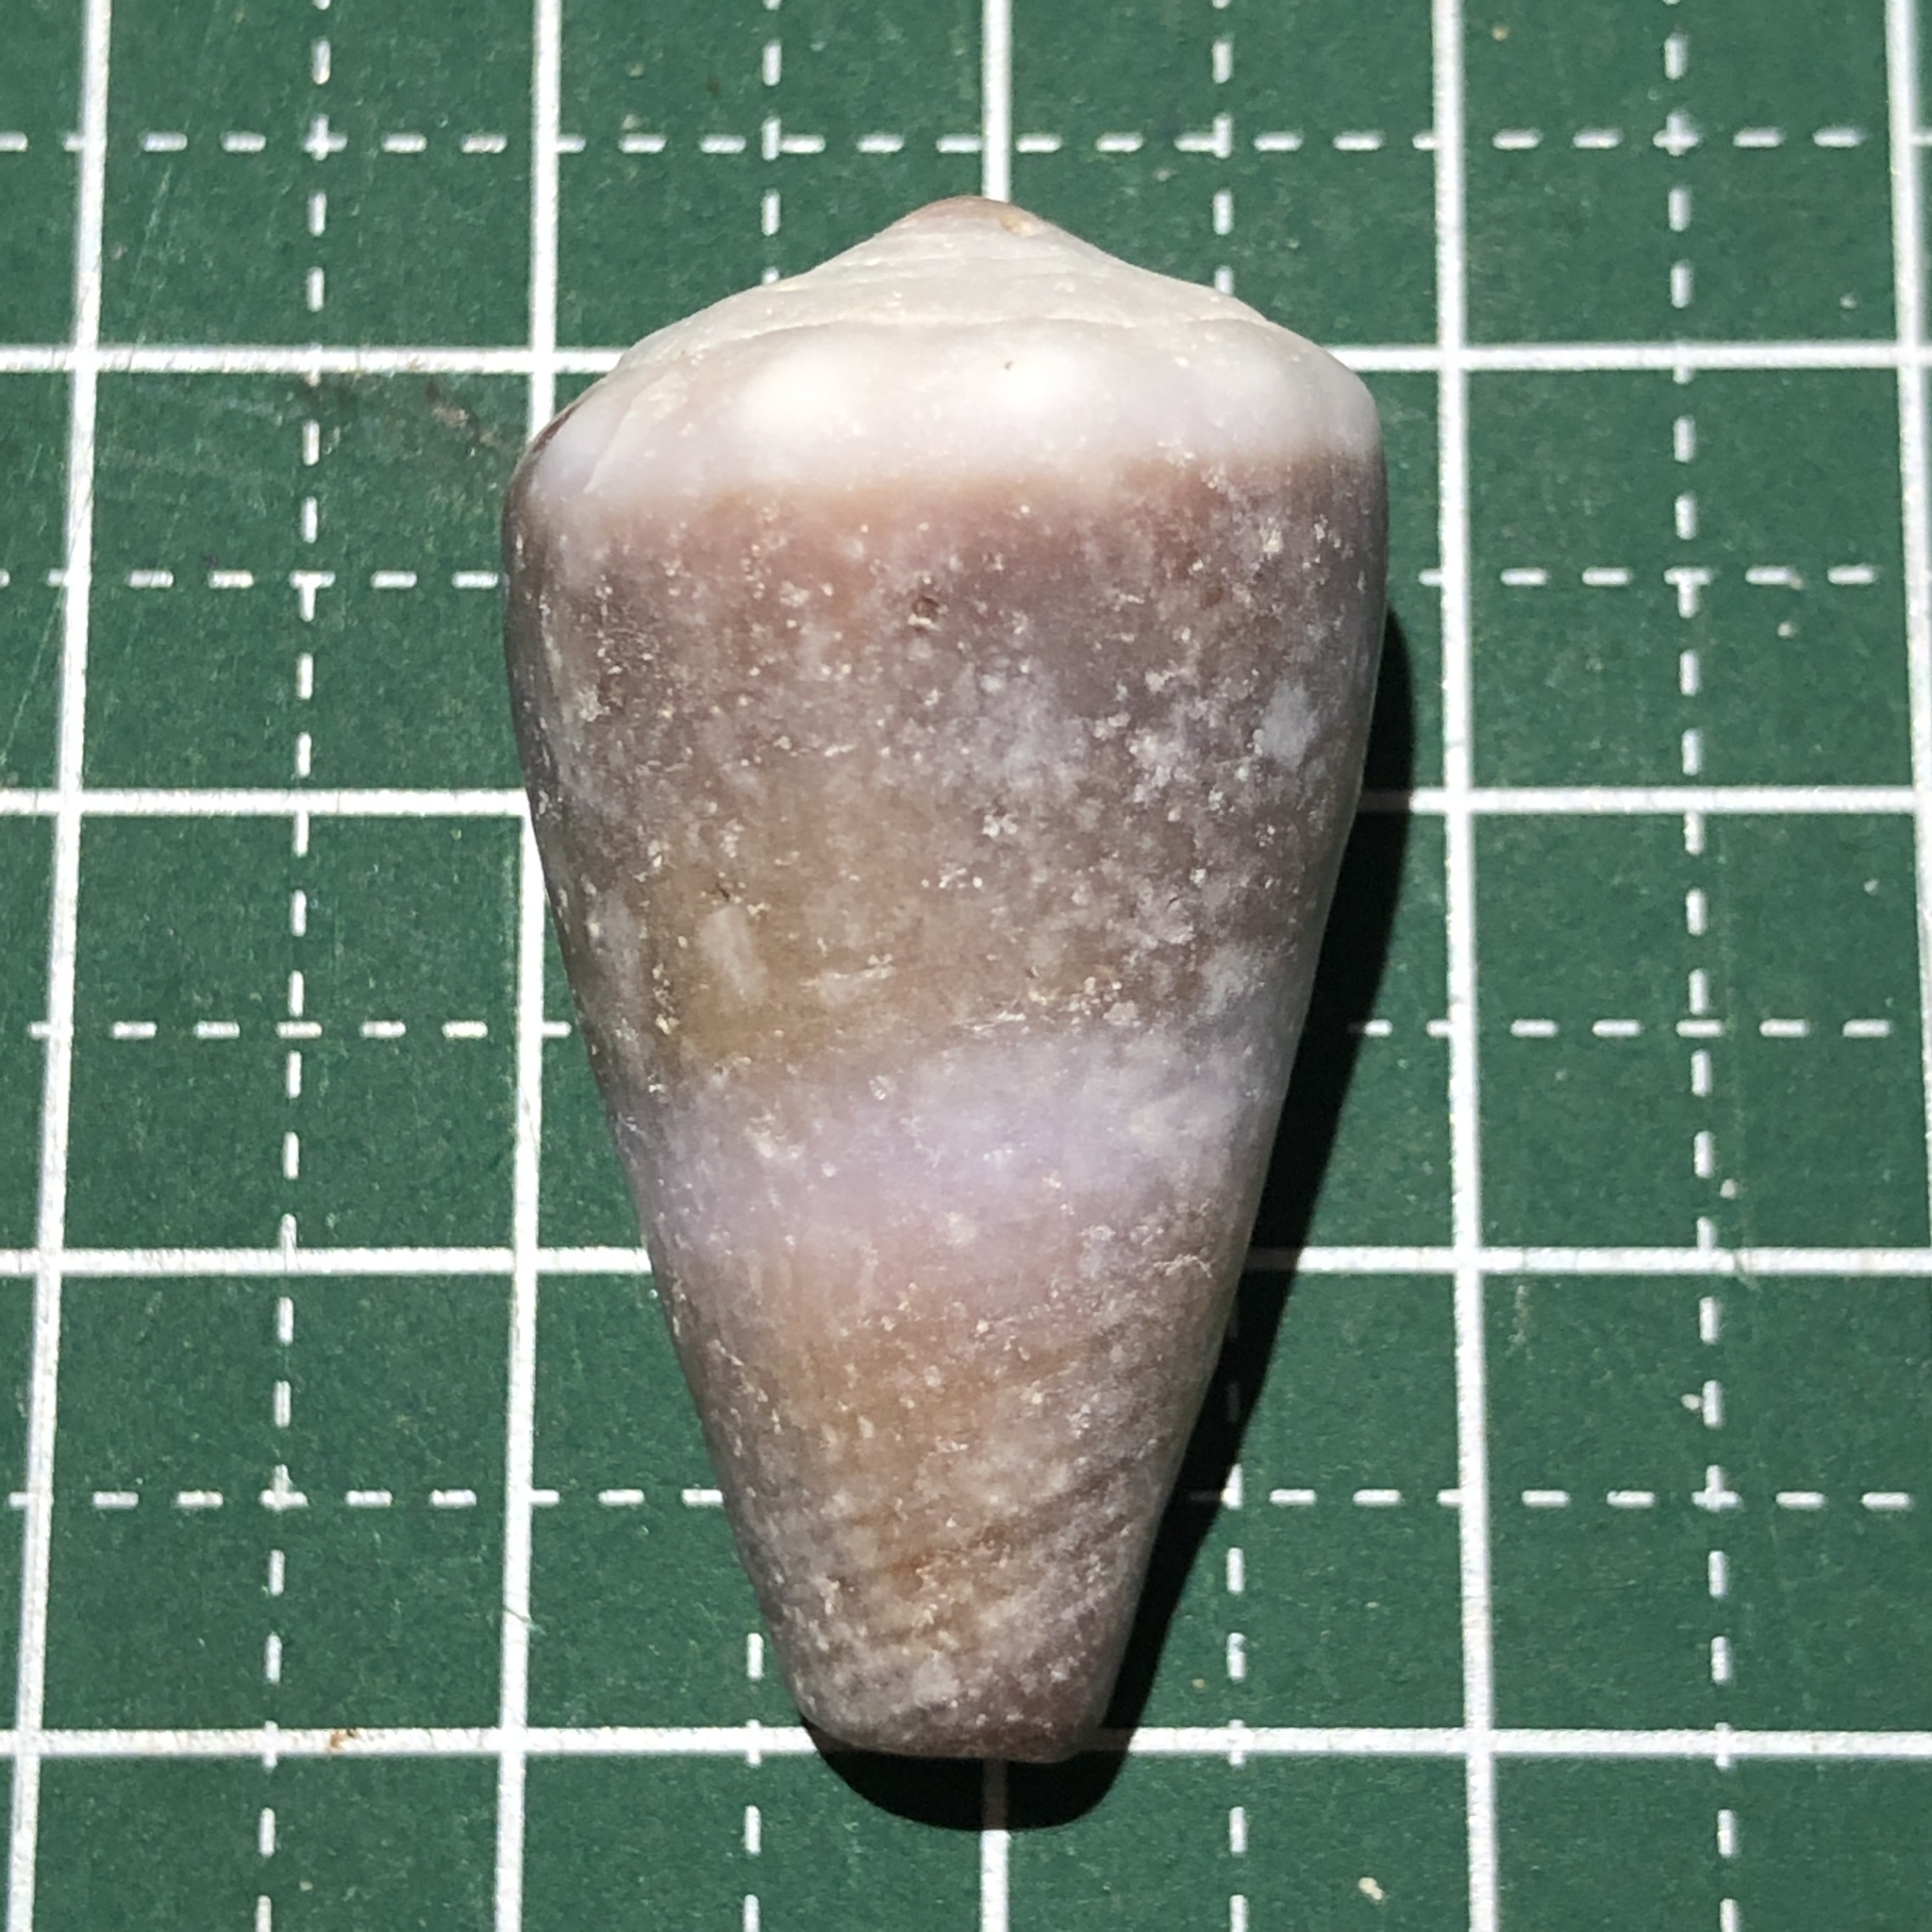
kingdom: Animalia
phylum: Mollusca
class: Gastropoda
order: Neogastropoda
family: Conidae
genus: Conus
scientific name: Conus lividus
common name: Livid cone
